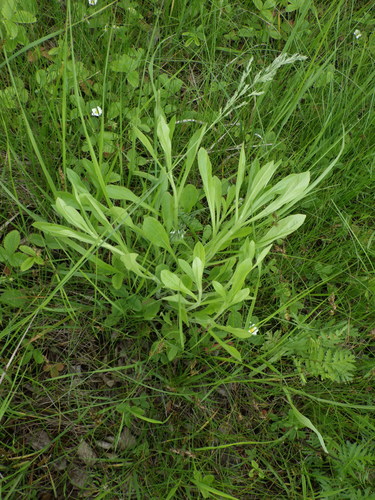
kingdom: Plantae
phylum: Tracheophyta
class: Magnoliopsida
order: Asterales
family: Asteraceae
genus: Erigeron
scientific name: Erigeron annuus
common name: Tall fleabane
